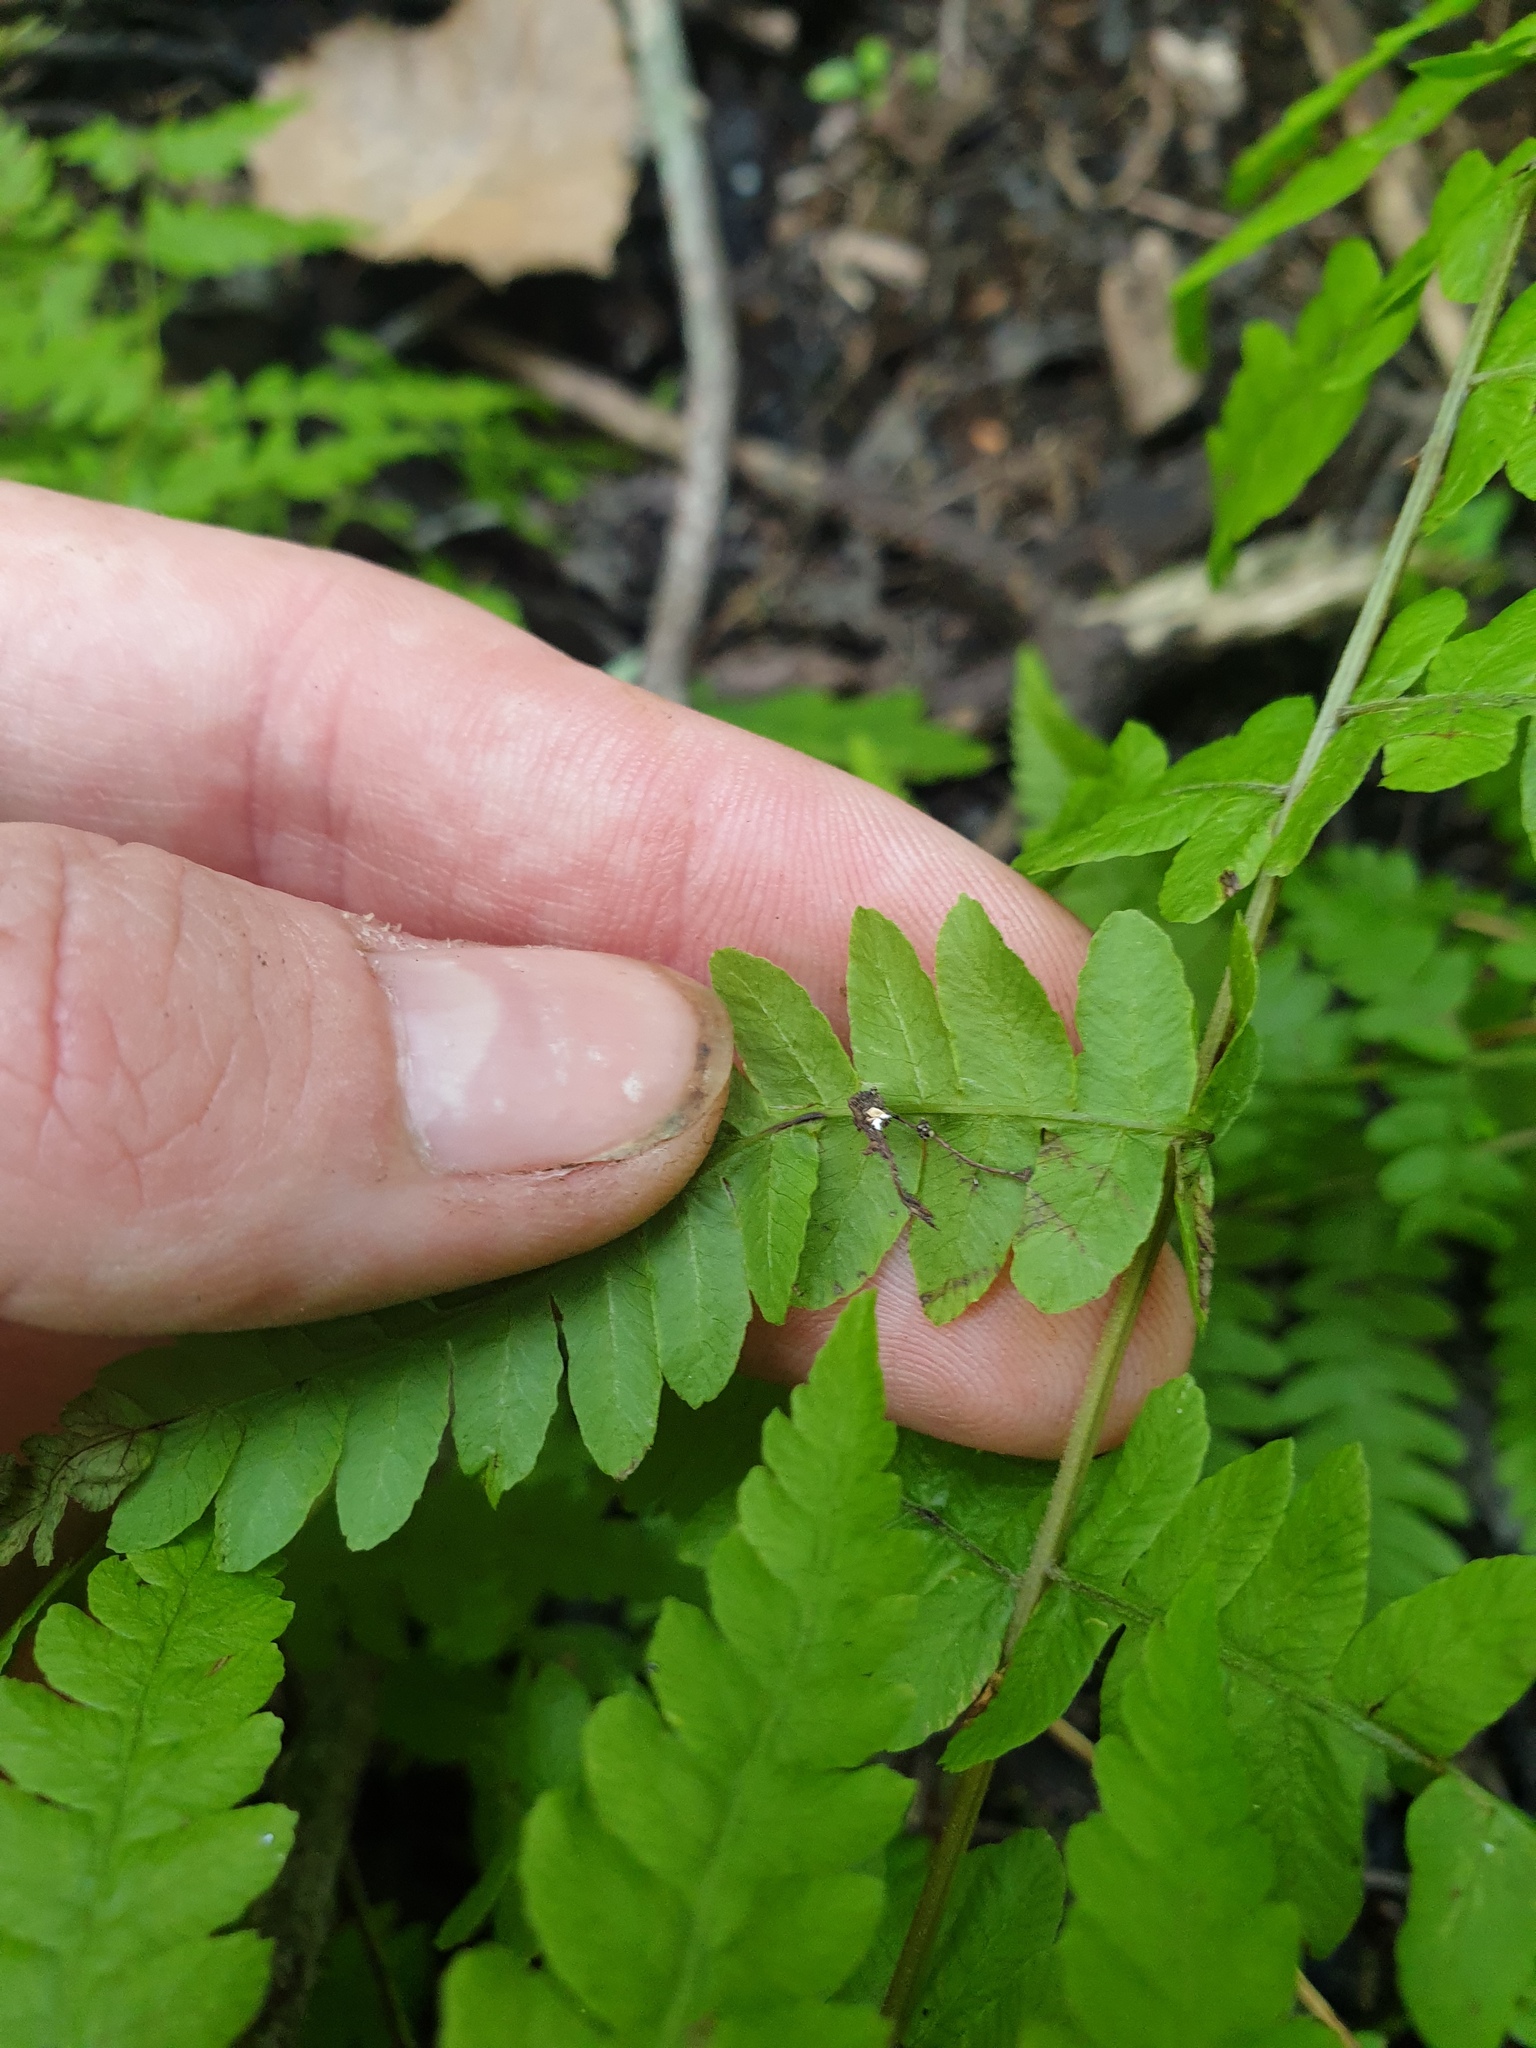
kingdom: Plantae
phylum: Tracheophyta
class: Polypodiopsida
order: Polypodiales
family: Thelypteridaceae
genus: Thelypteris
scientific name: Thelypteris palustris
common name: Marsh fern
